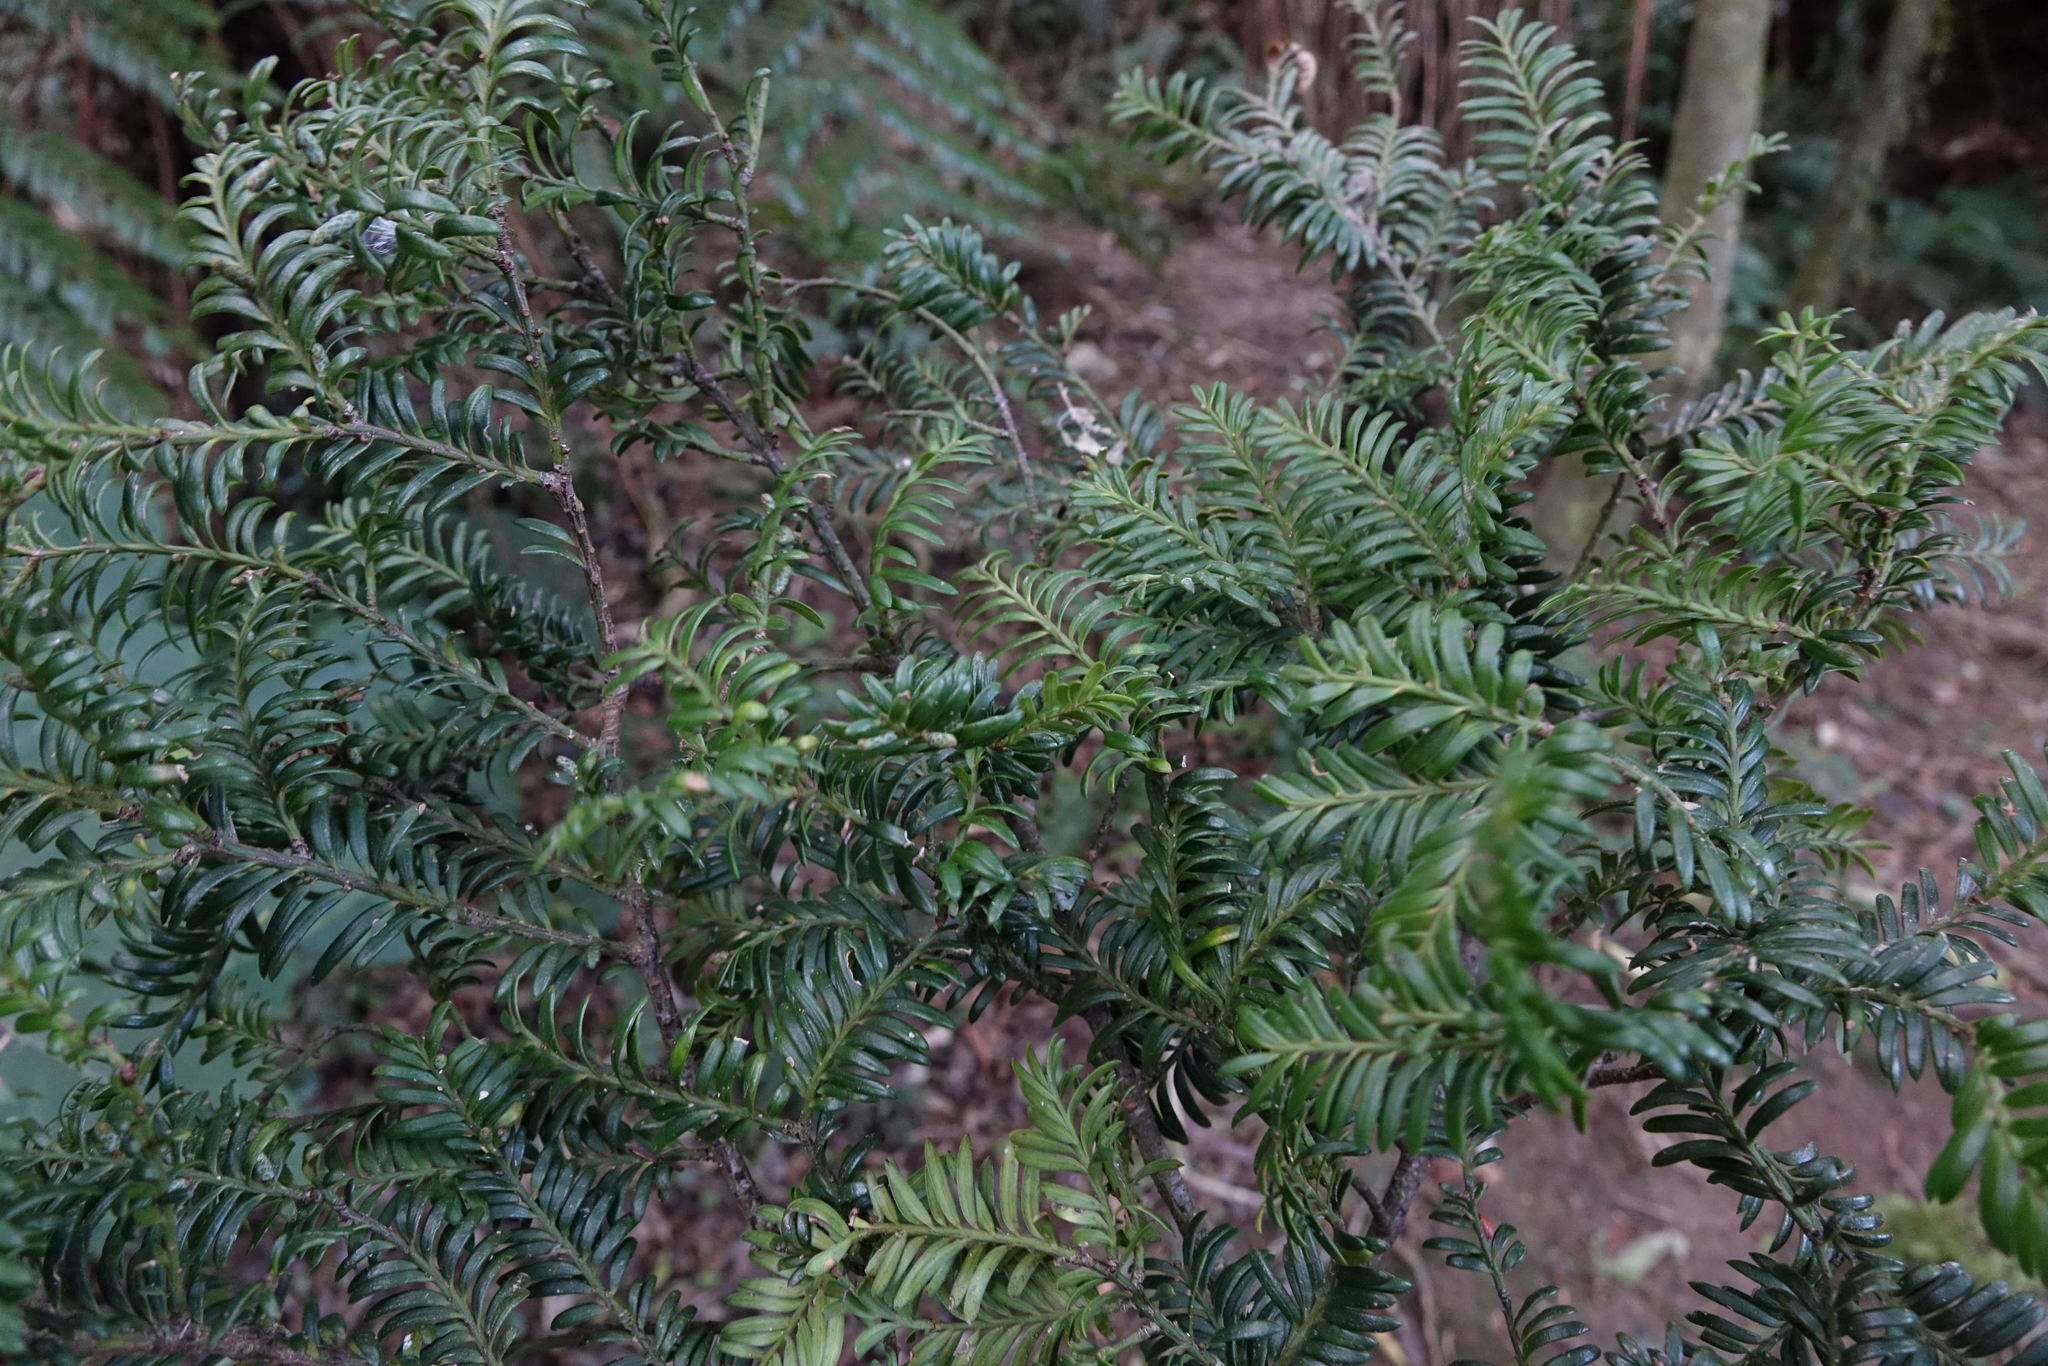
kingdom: Plantae
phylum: Tracheophyta
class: Pinopsida
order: Pinales
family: Podocarpaceae
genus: Prumnopitys
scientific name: Prumnopitys ferruginea
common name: Brown pine
